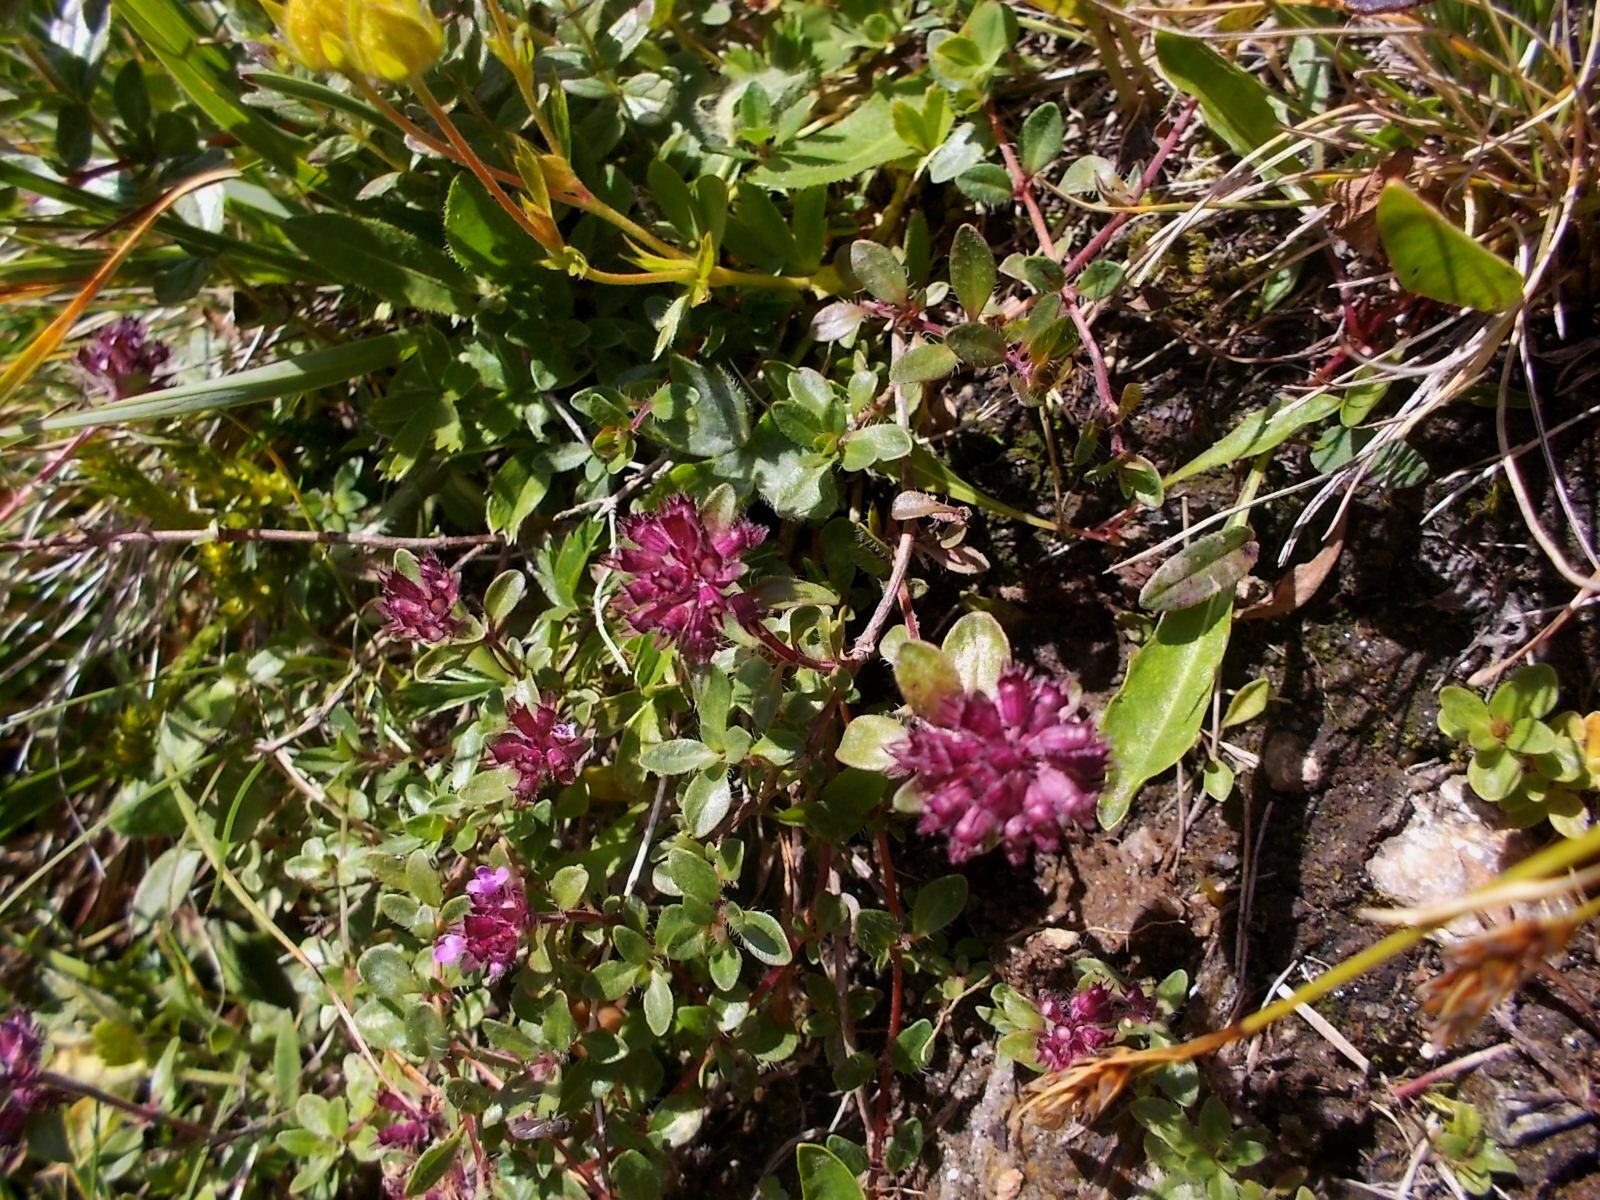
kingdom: Plantae
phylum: Tracheophyta
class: Magnoliopsida
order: Lamiales
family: Lamiaceae
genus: Thymus
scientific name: Thymus pulegioides
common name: Large thyme
